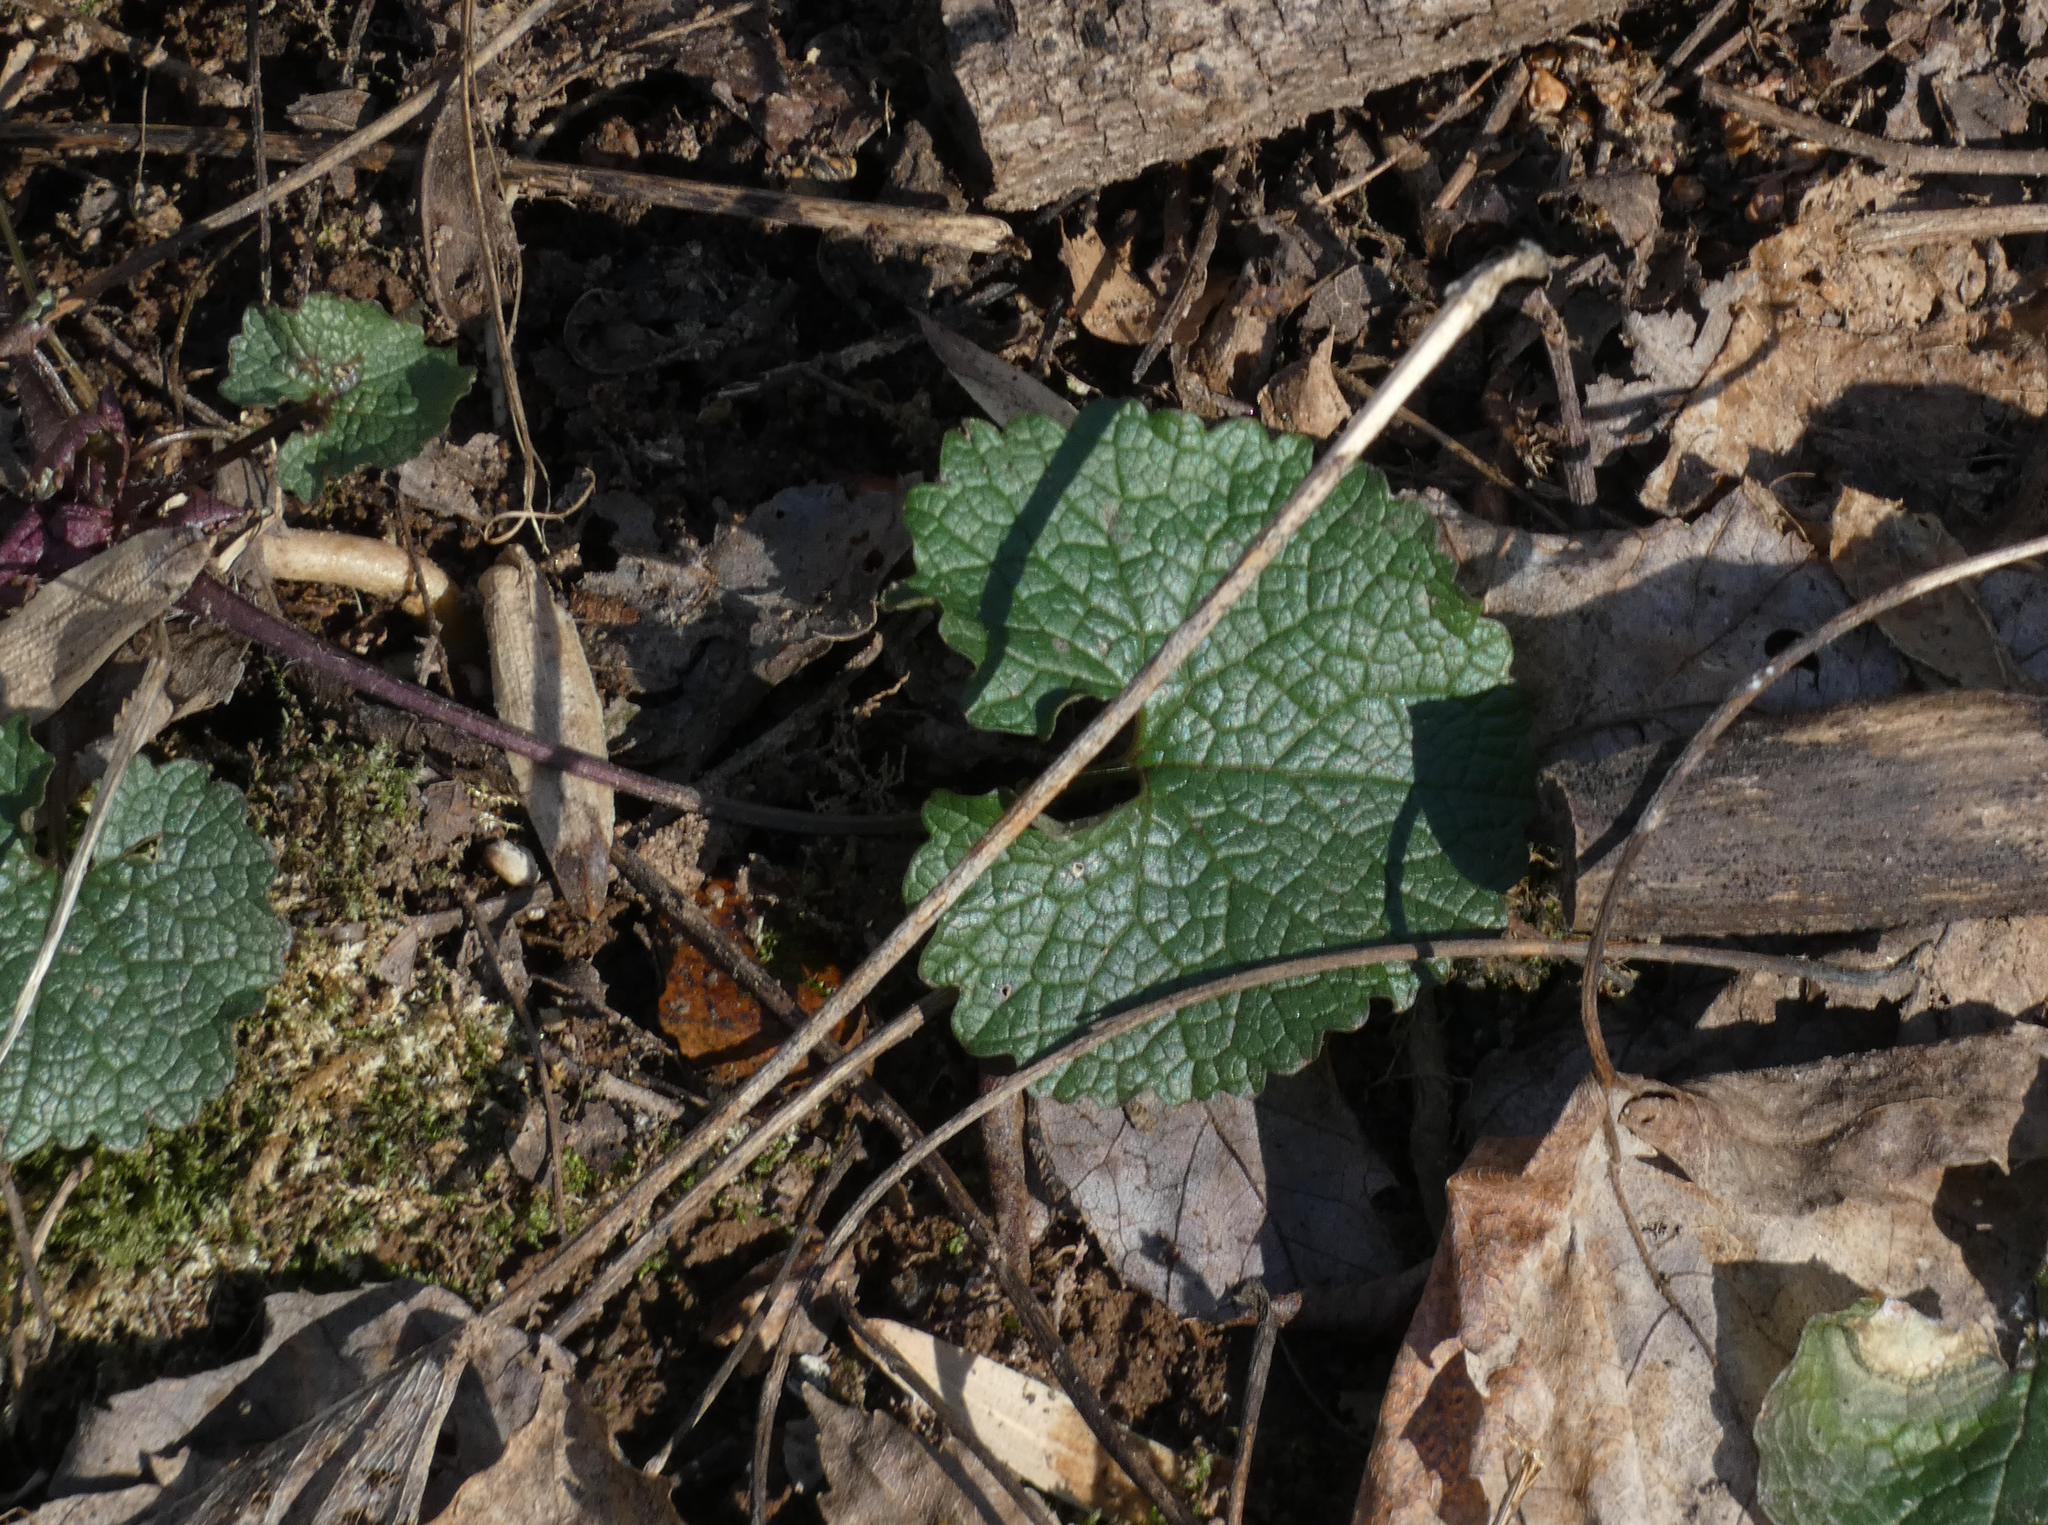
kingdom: Plantae
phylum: Tracheophyta
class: Magnoliopsida
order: Brassicales
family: Brassicaceae
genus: Alliaria
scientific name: Alliaria petiolata
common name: Garlic mustard
